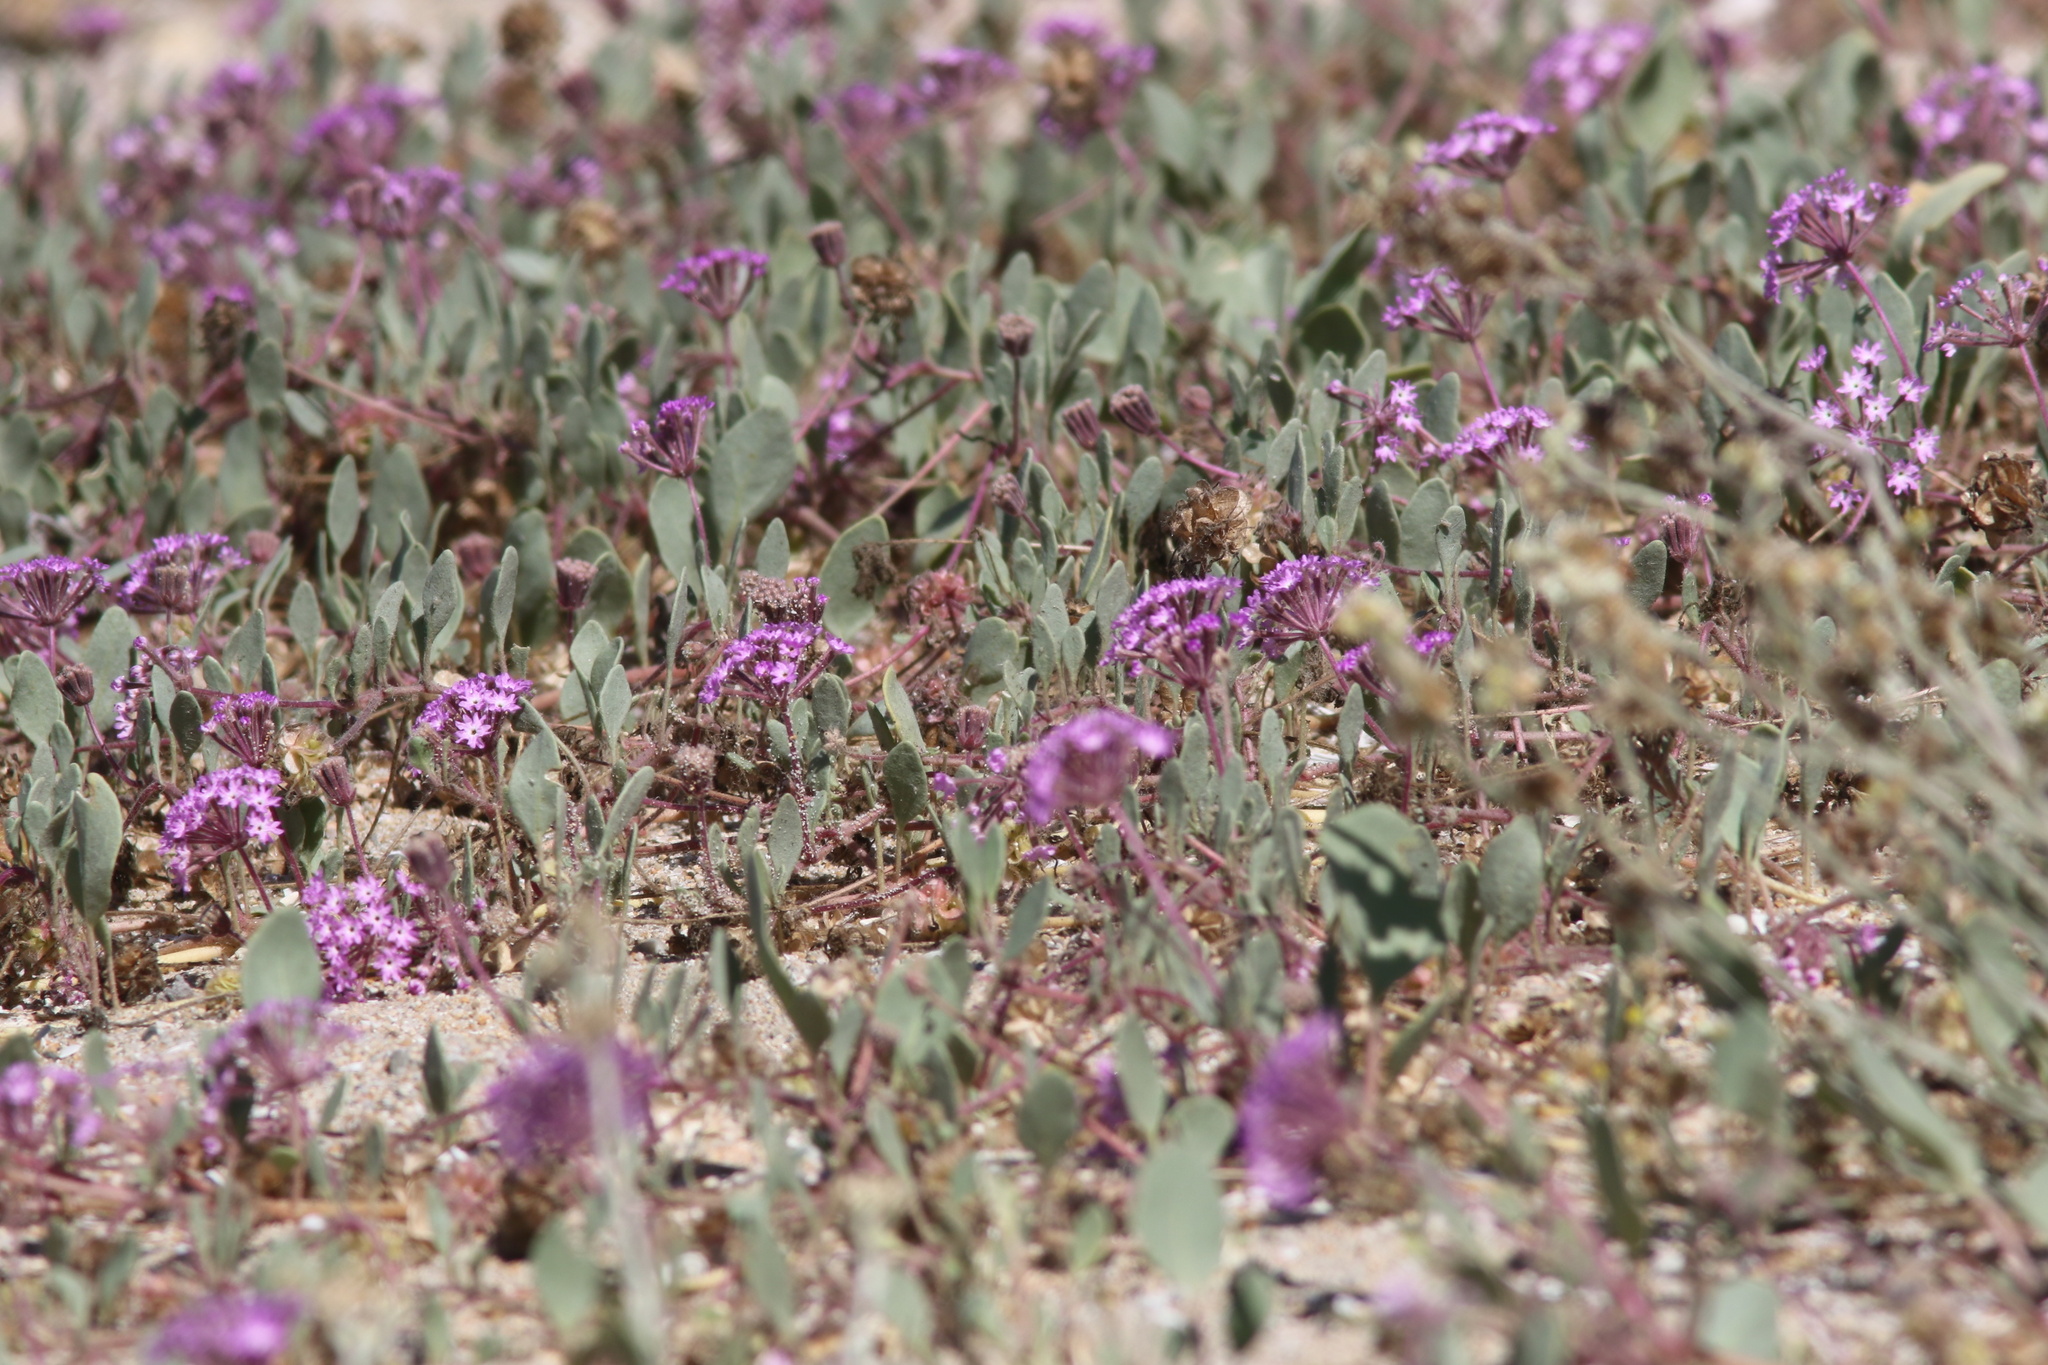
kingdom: Plantae
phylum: Tracheophyta
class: Magnoliopsida
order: Caryophyllales
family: Nyctaginaceae
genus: Abronia
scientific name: Abronia umbellata
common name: Sand-verbena
